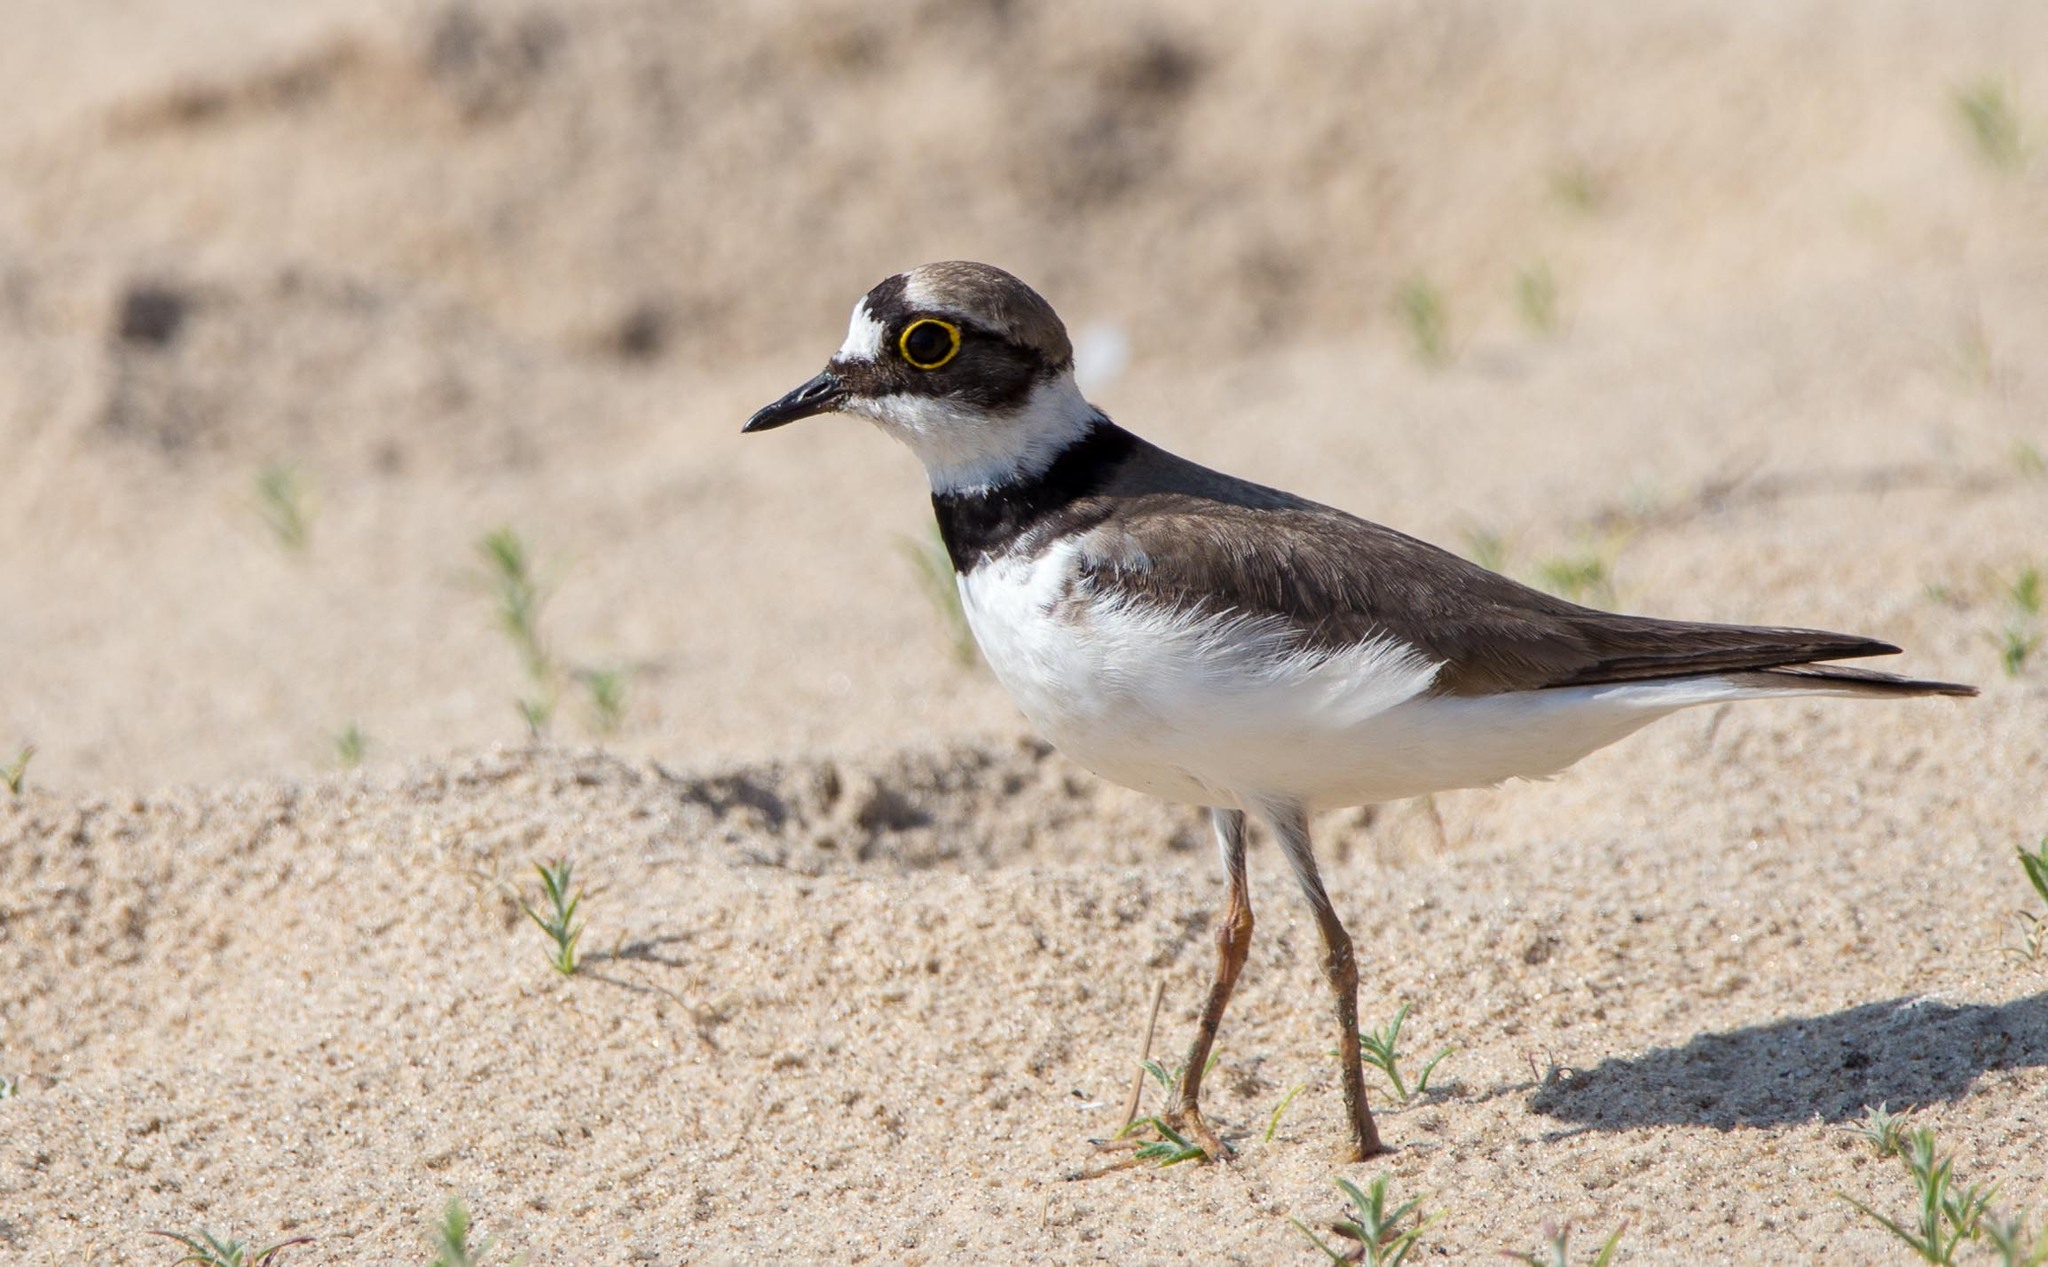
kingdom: Animalia
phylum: Chordata
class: Aves
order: Charadriiformes
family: Charadriidae
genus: Charadrius
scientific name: Charadrius dubius
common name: Little ringed plover
